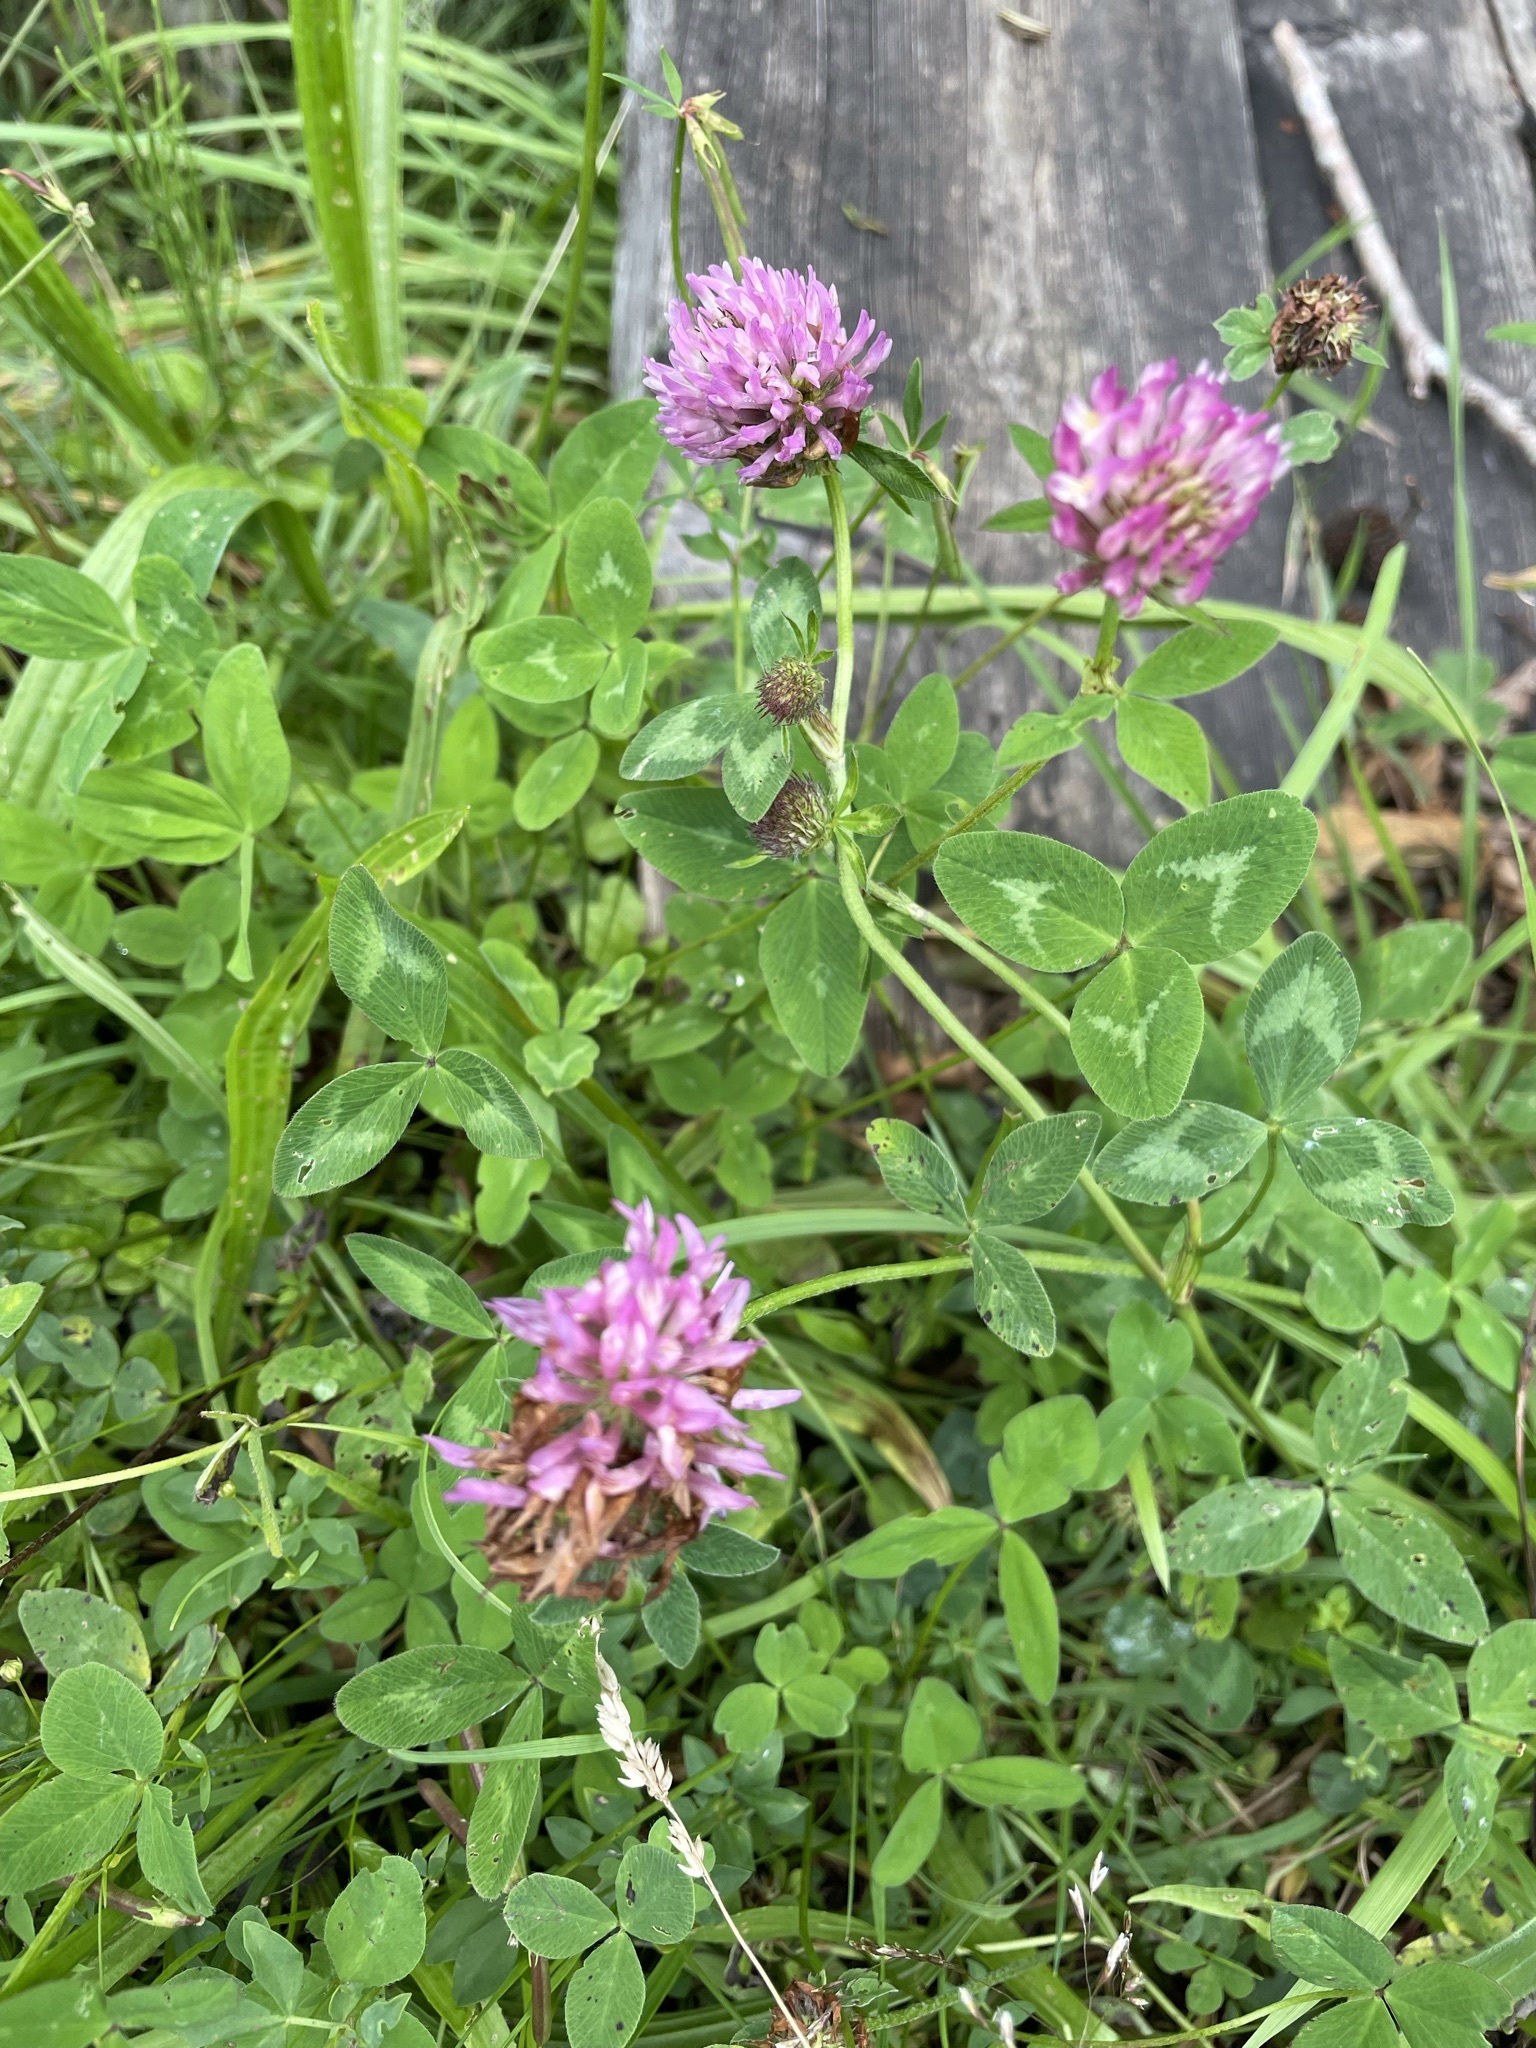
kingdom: Plantae
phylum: Tracheophyta
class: Magnoliopsida
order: Fabales
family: Fabaceae
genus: Trifolium
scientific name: Trifolium pratense
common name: Red clover
